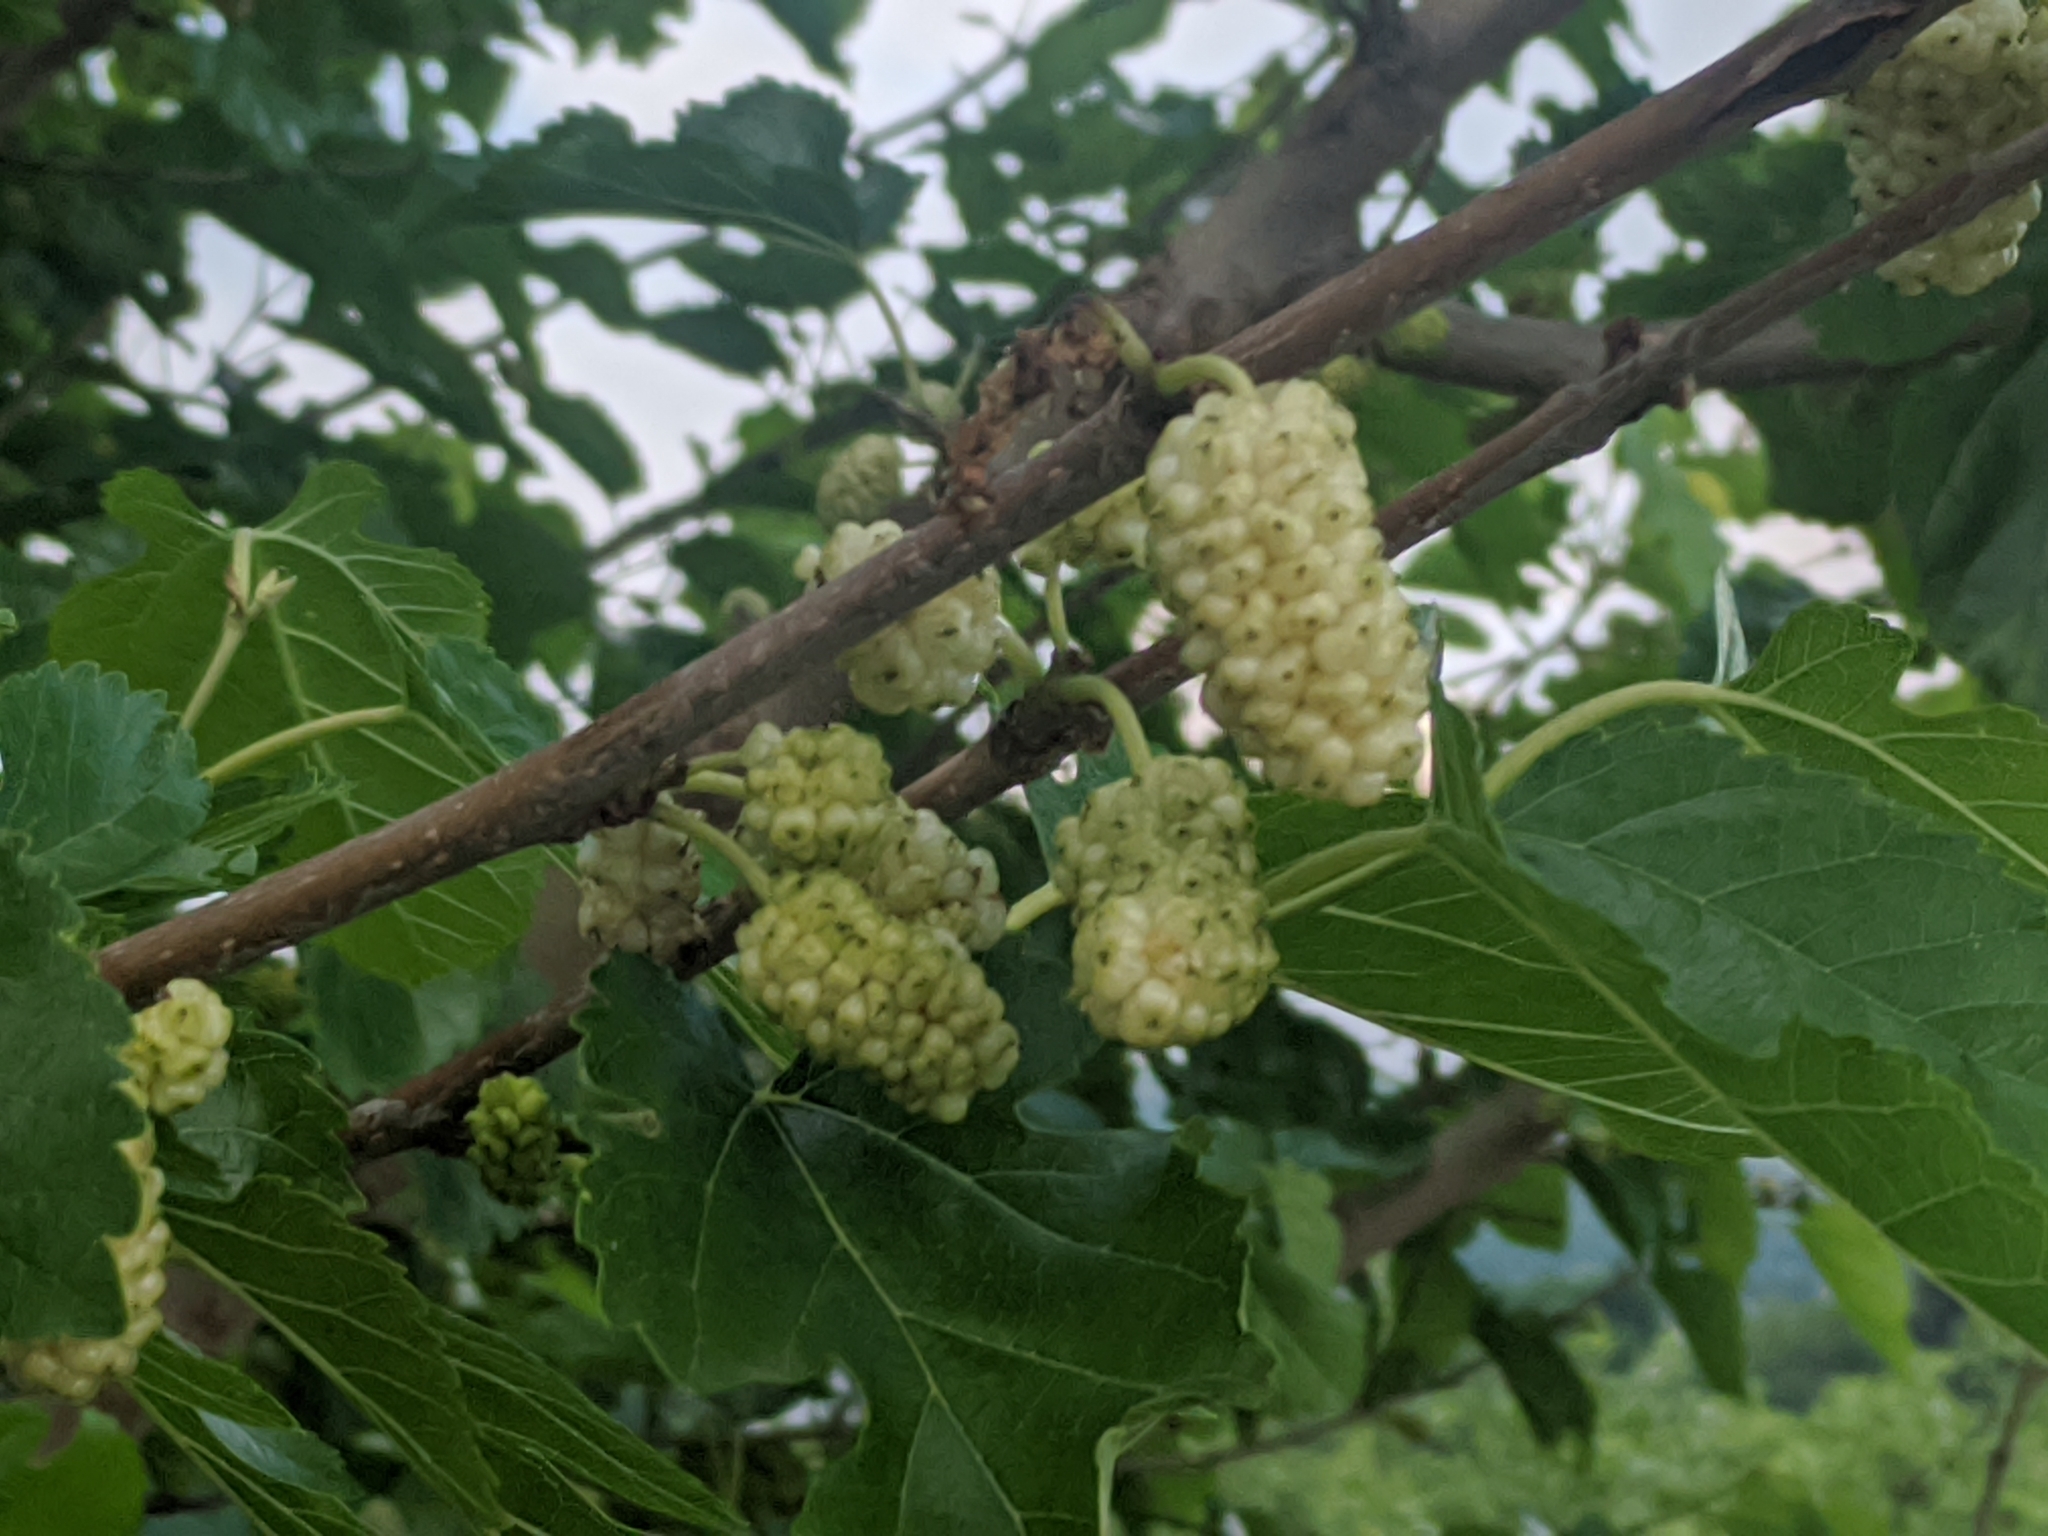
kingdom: Plantae
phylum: Tracheophyta
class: Magnoliopsida
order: Rosales
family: Moraceae
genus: Morus
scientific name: Morus alba
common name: White mulberry
